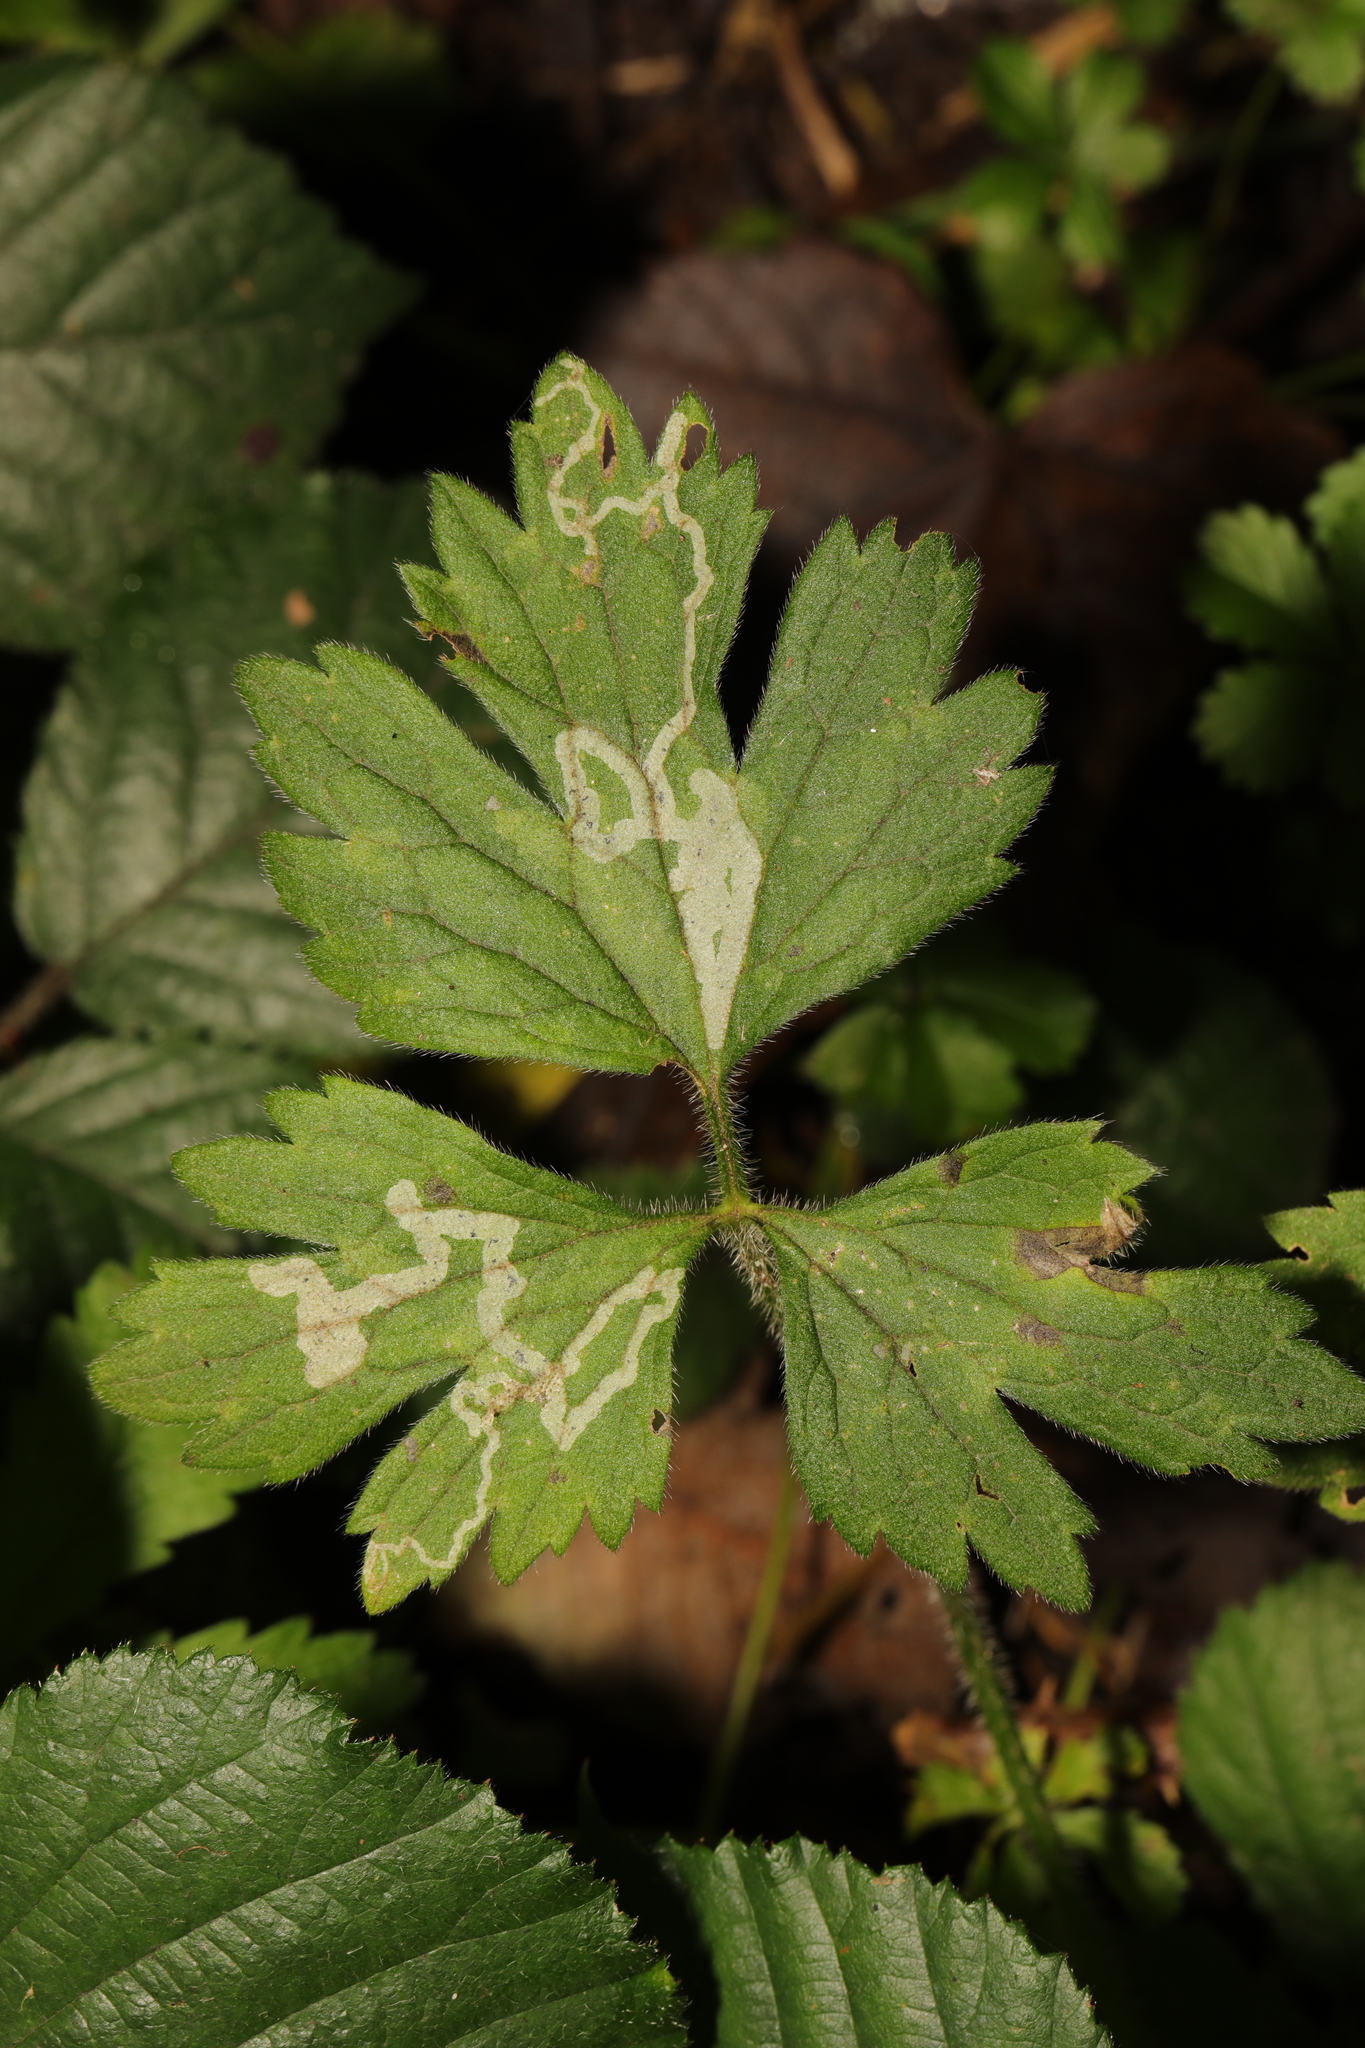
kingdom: Animalia
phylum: Arthropoda
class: Insecta
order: Diptera
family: Agromyzidae
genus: Phytomyza
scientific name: Phytomyza ranunculi
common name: Leaf-miner fly
